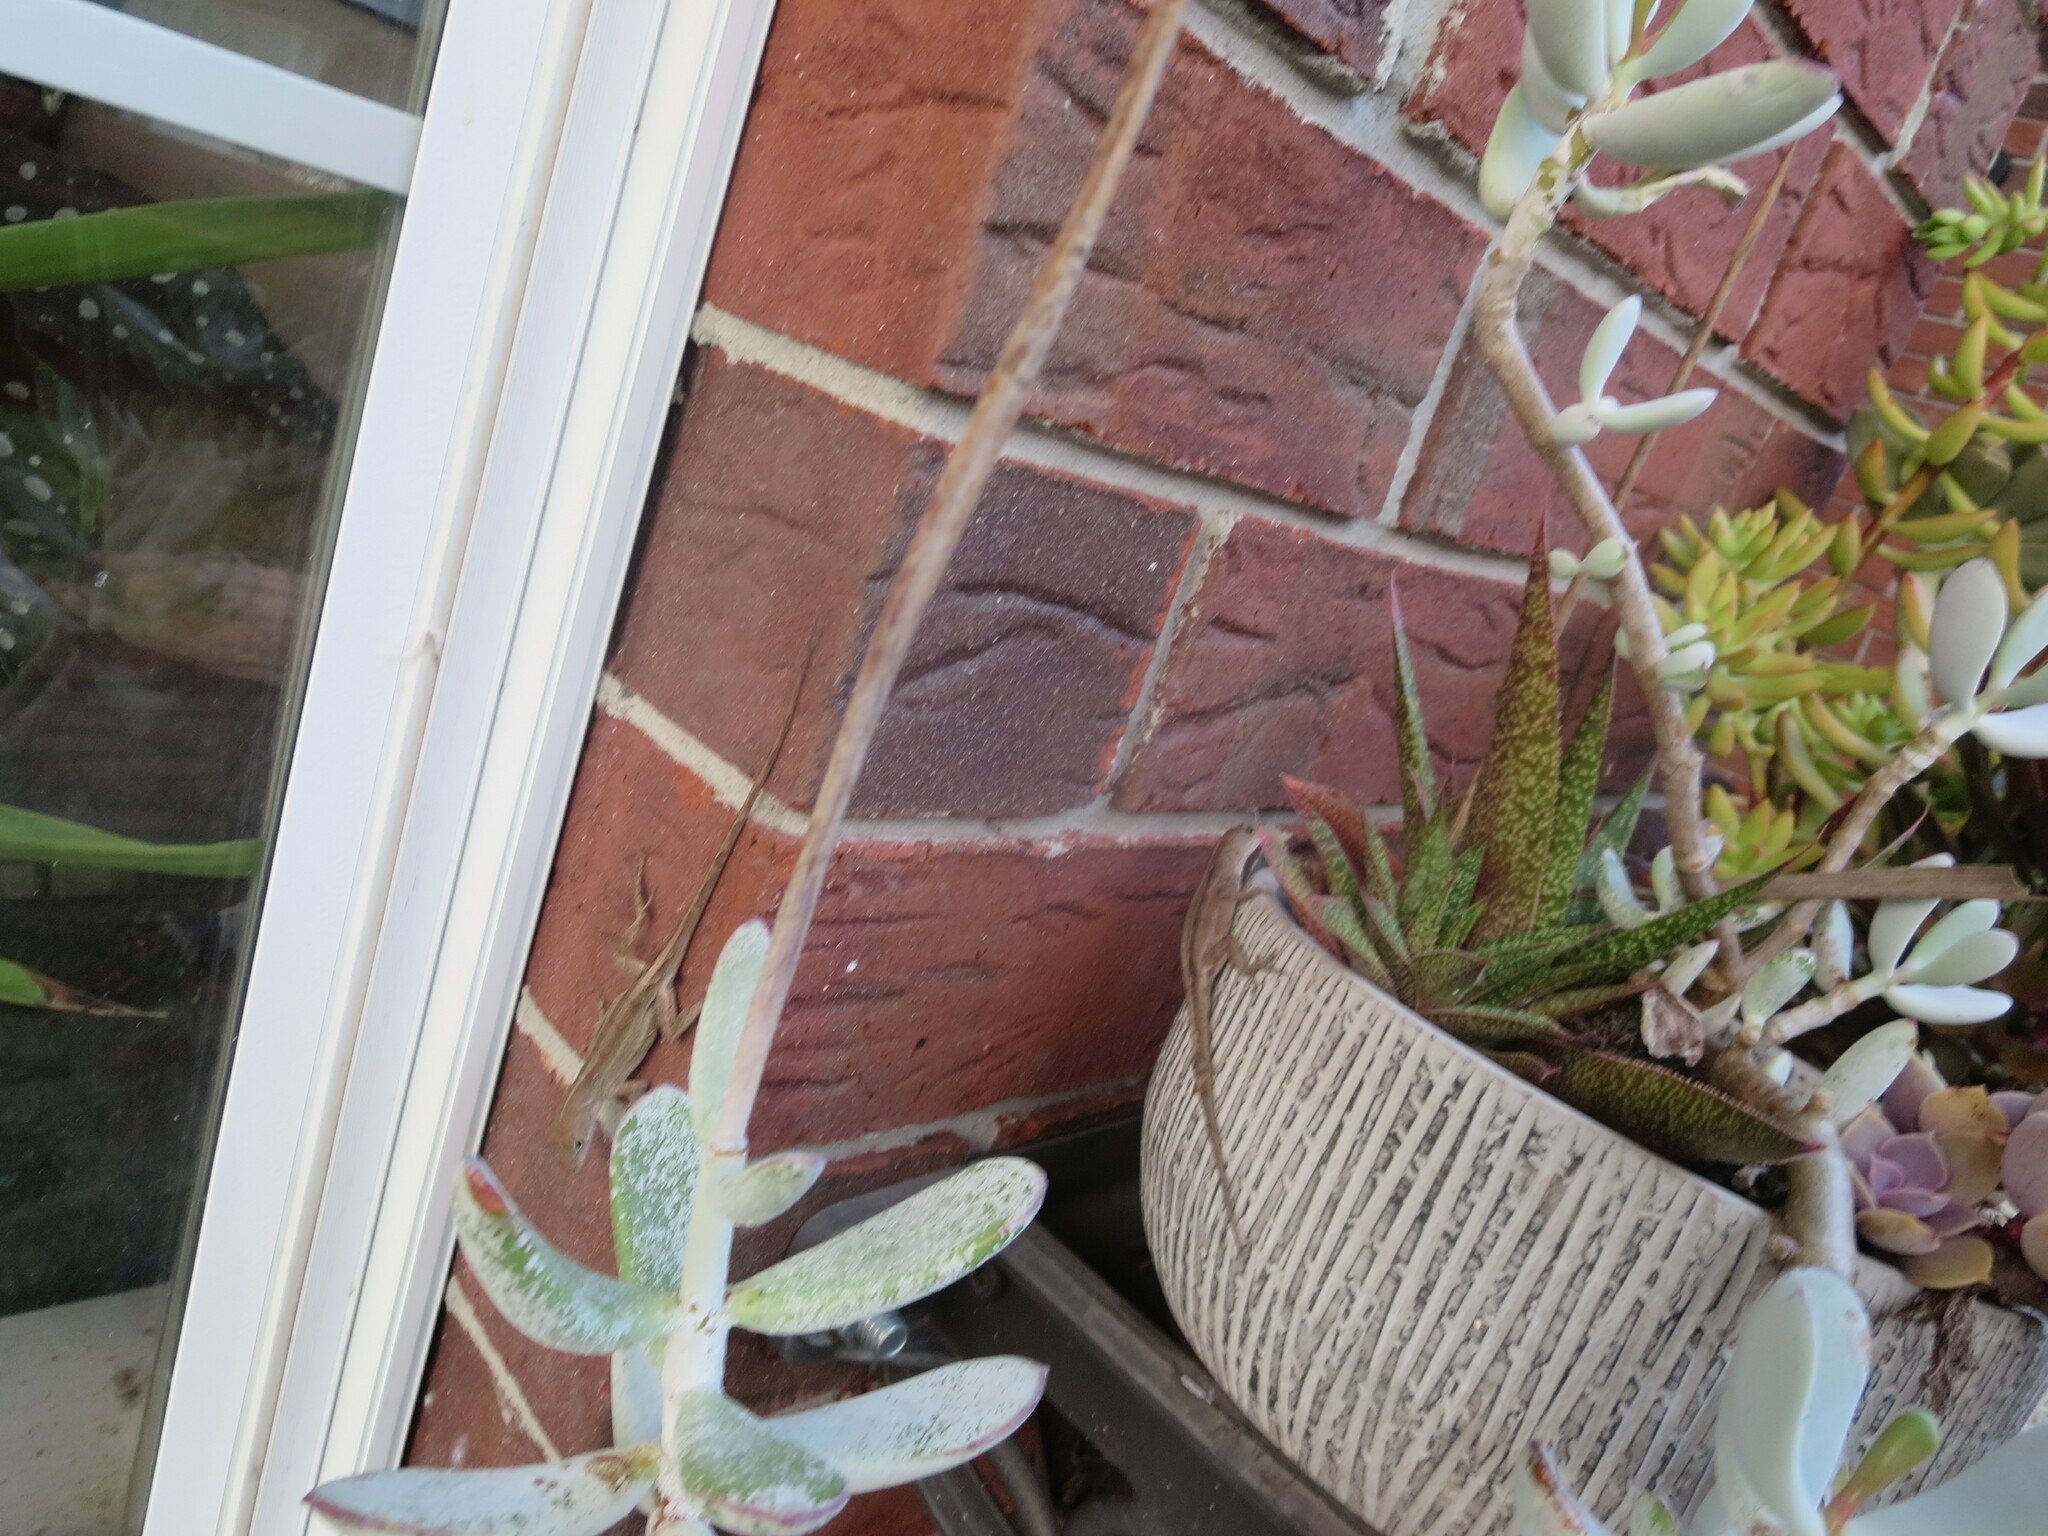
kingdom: Animalia
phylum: Chordata
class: Squamata
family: Dactyloidae
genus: Anolis
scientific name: Anolis sagrei
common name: Brown anole
